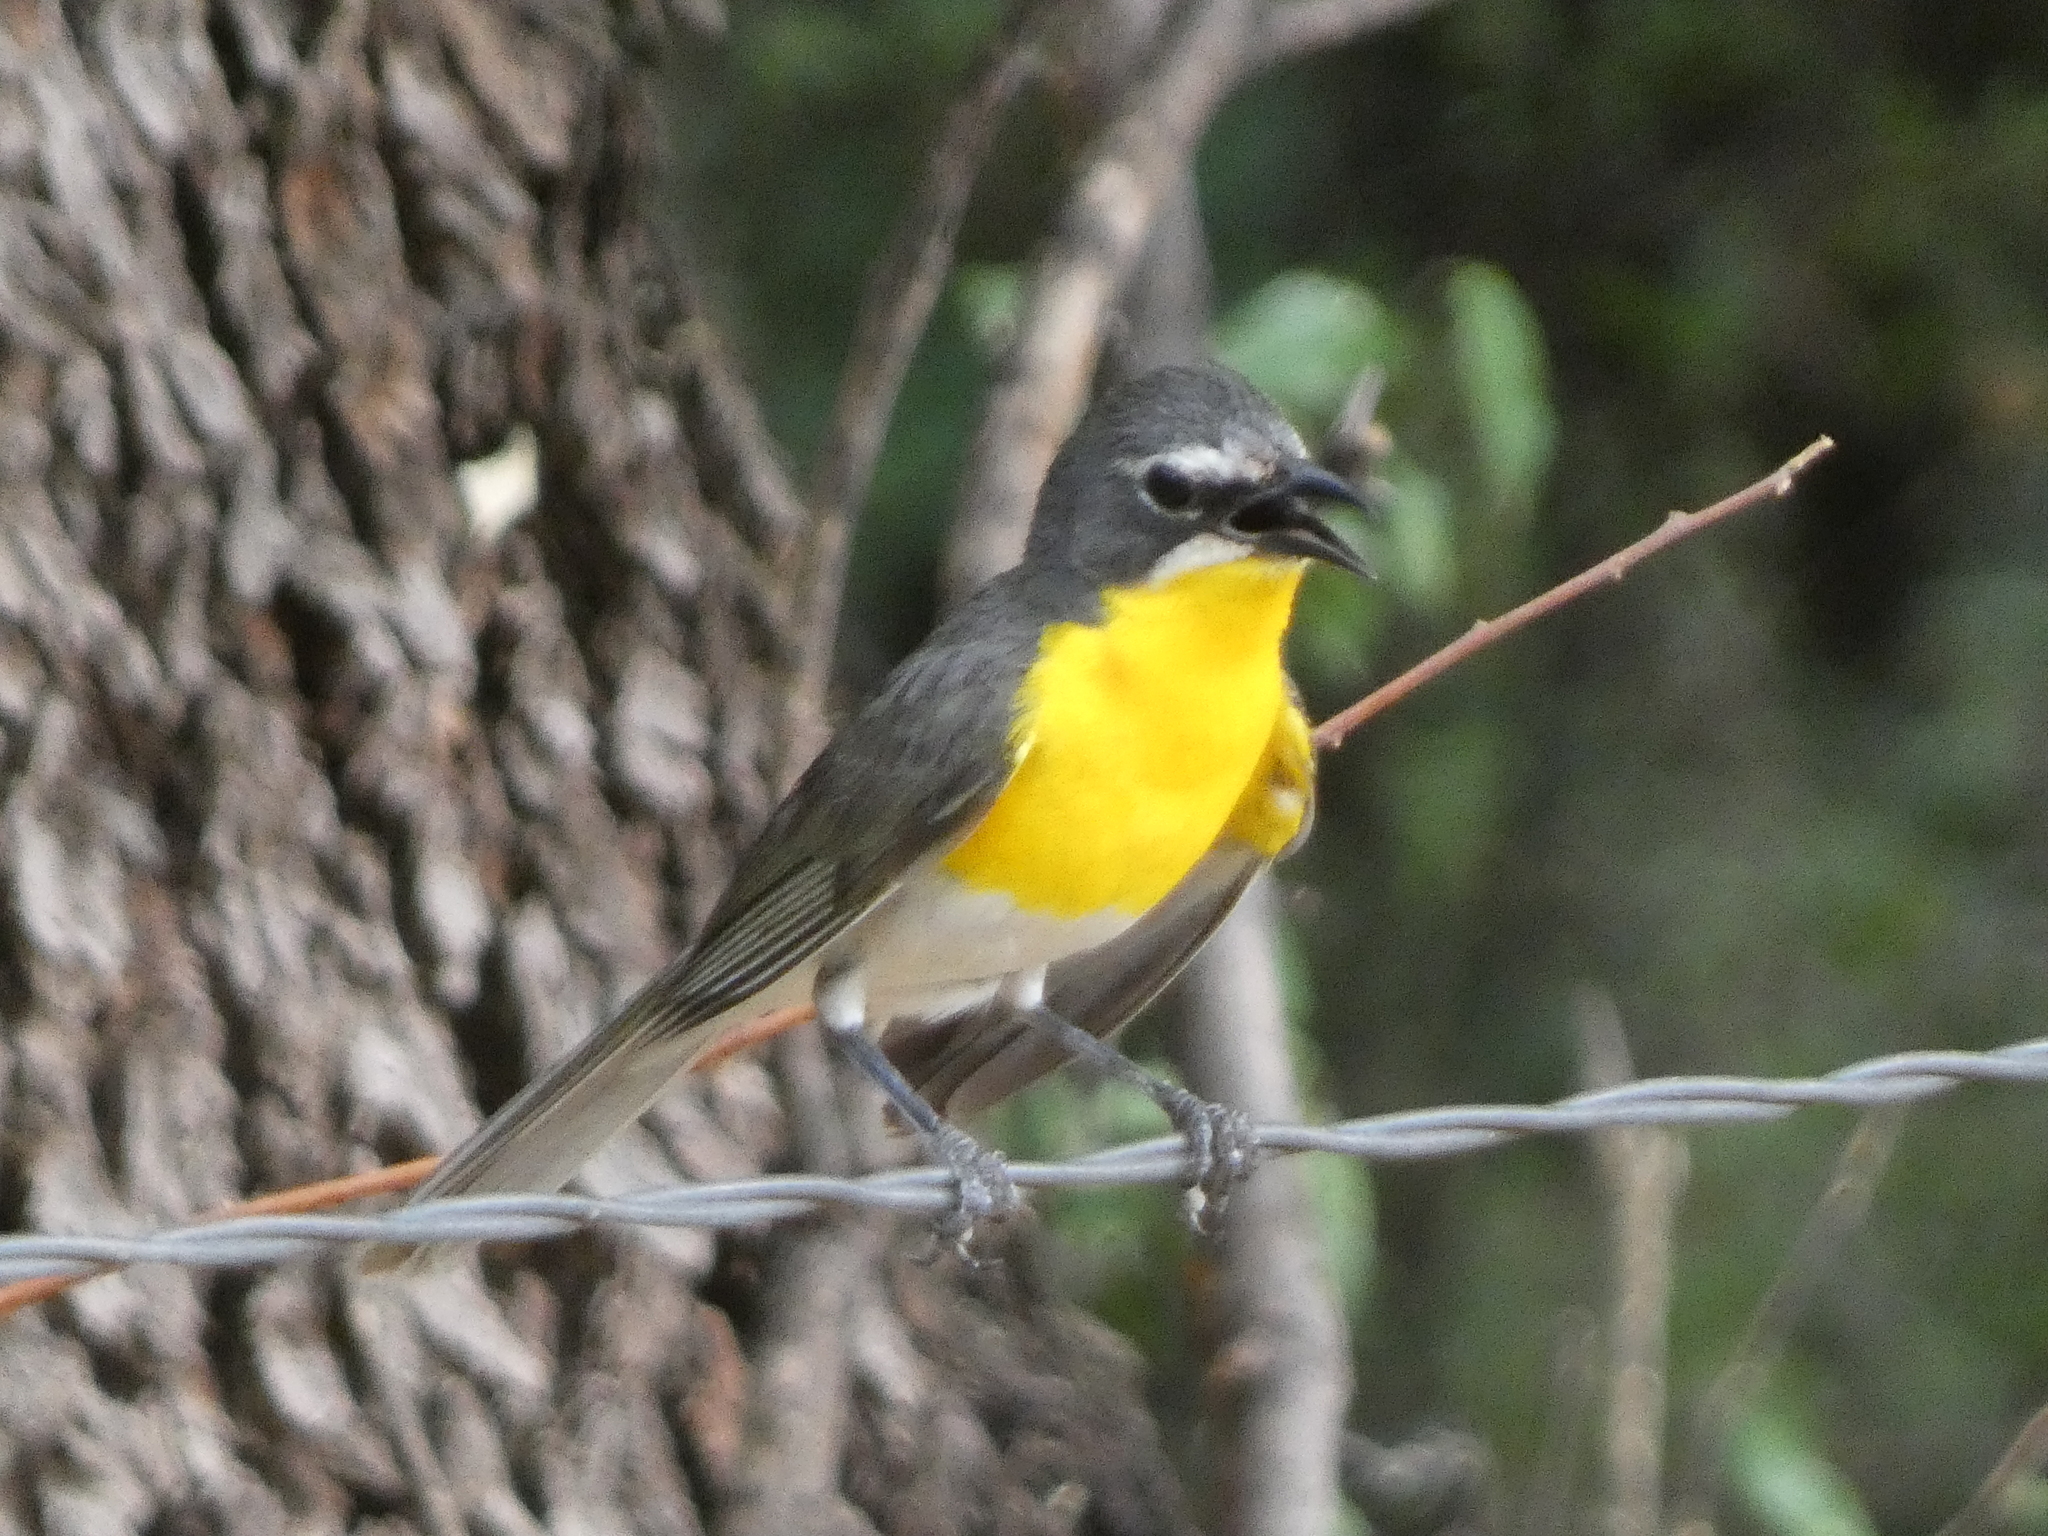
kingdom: Animalia
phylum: Chordata
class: Aves
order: Passeriformes
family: Parulidae
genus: Icteria
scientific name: Icteria virens
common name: Yellow-breasted chat
